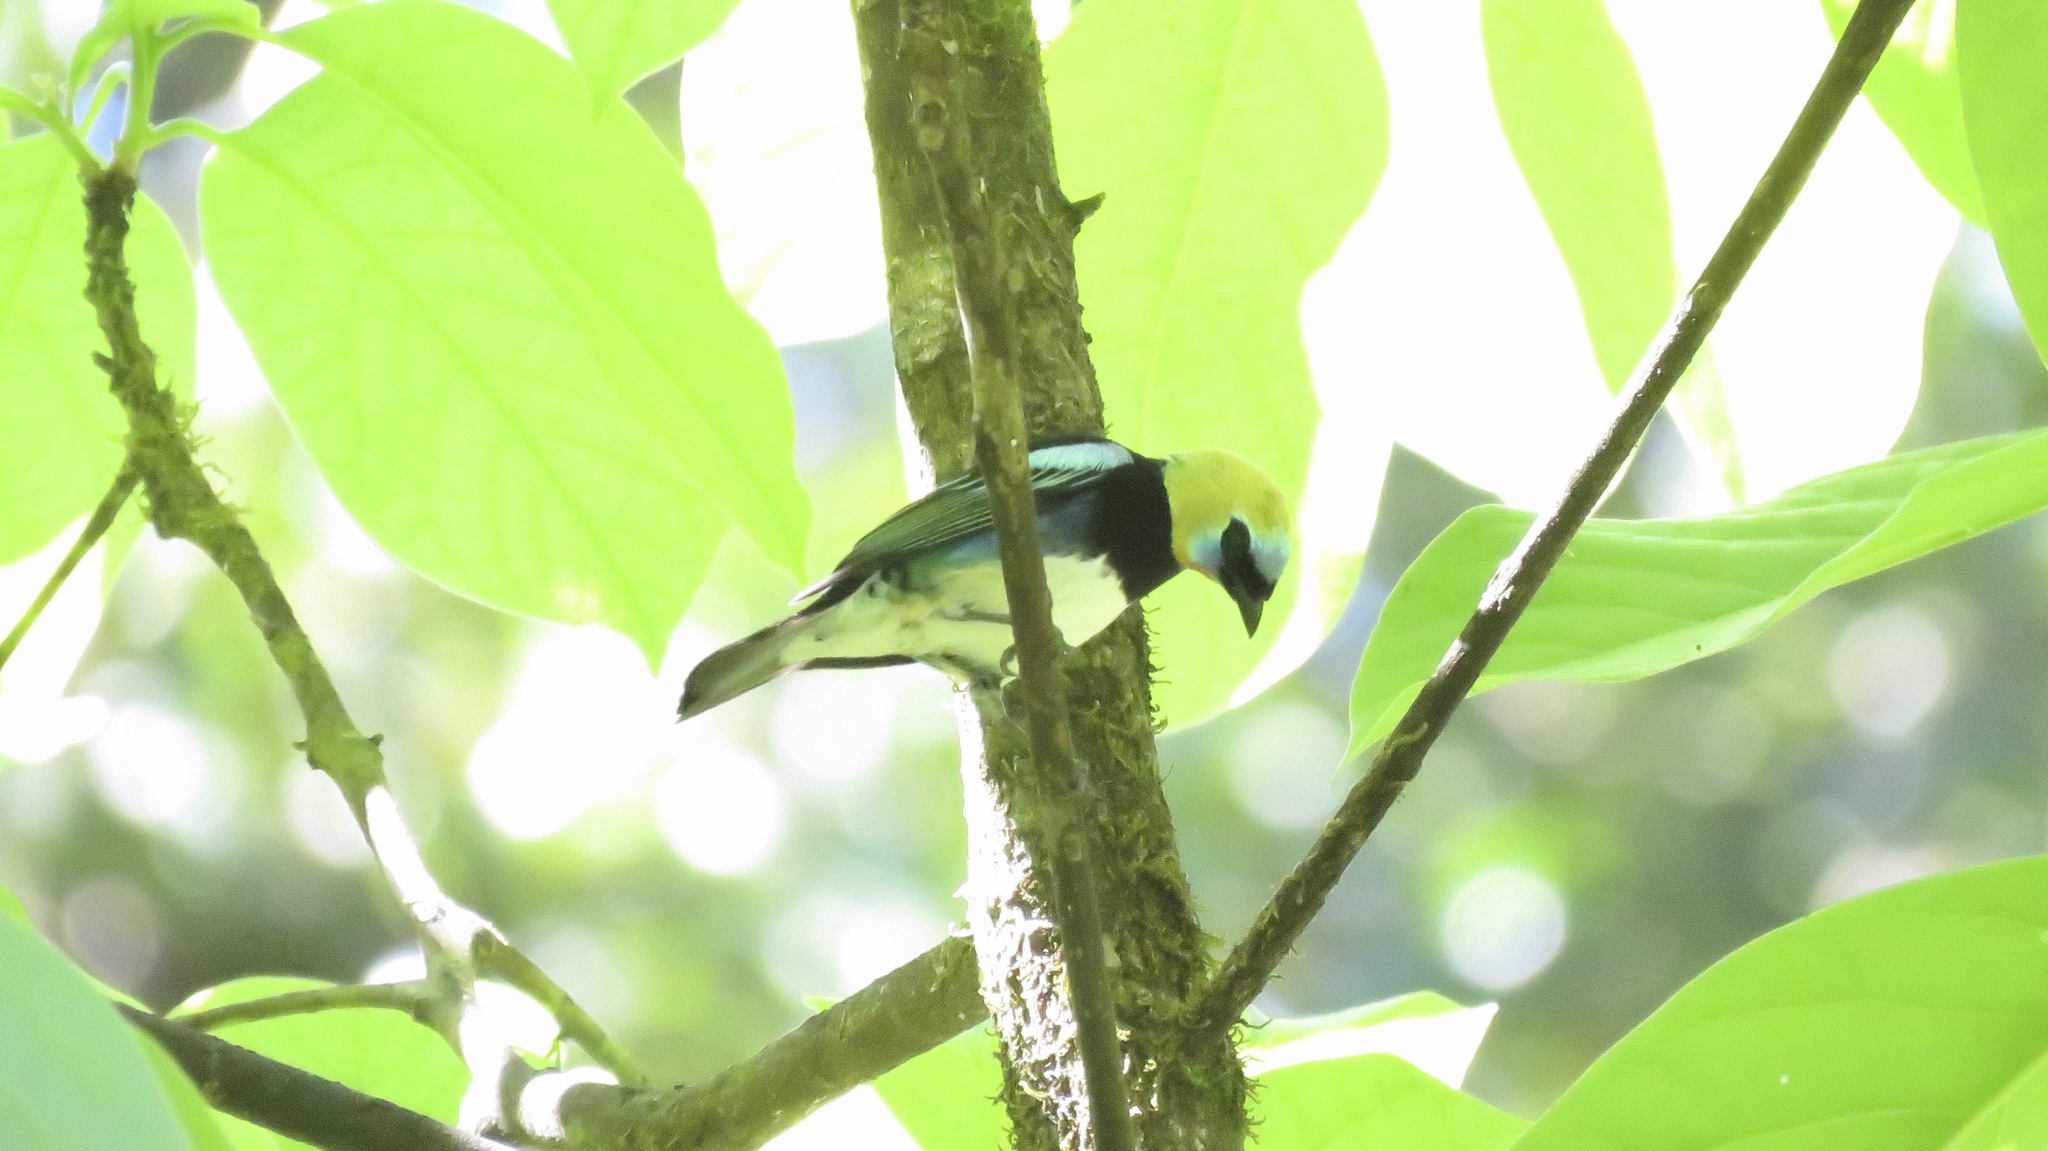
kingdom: Animalia
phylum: Chordata
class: Aves
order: Passeriformes
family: Thraupidae
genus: Stilpnia
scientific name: Stilpnia larvata
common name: Golden-hooded tanager
